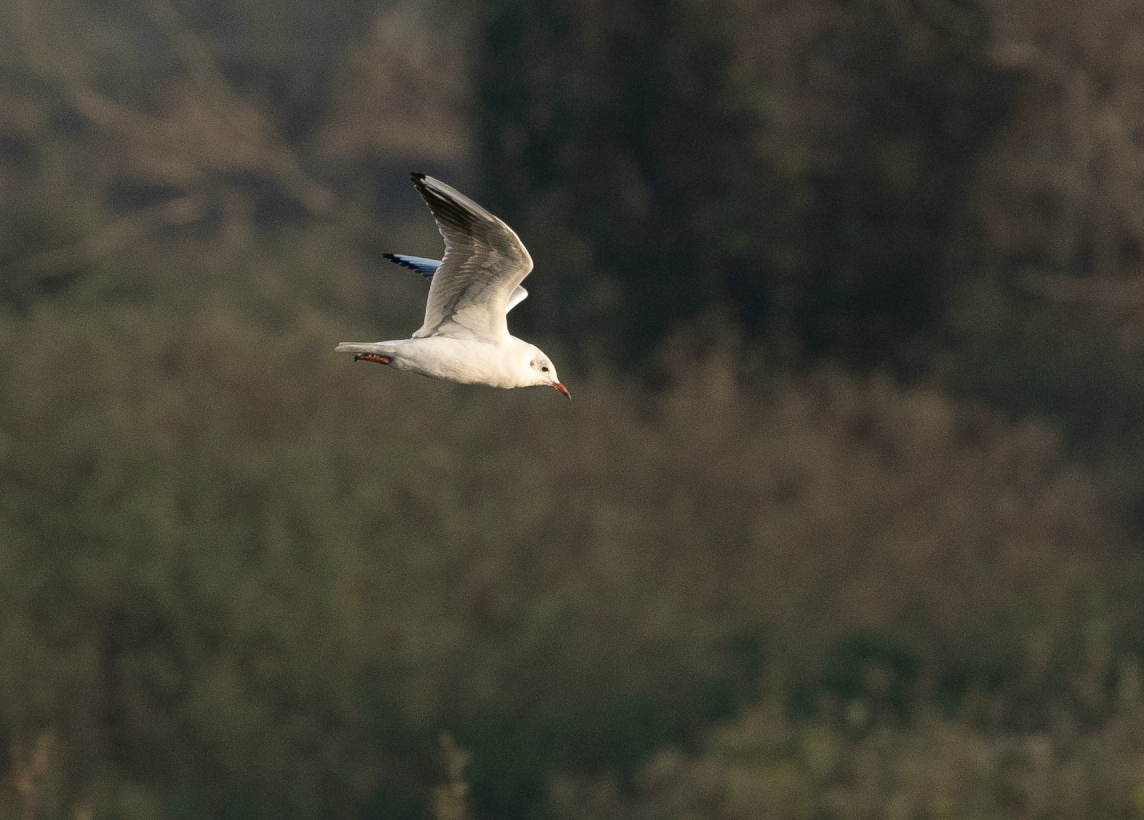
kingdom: Animalia
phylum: Chordata
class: Aves
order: Charadriiformes
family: Laridae
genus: Chroicocephalus
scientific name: Chroicocephalus ridibundus
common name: Black-headed gull
